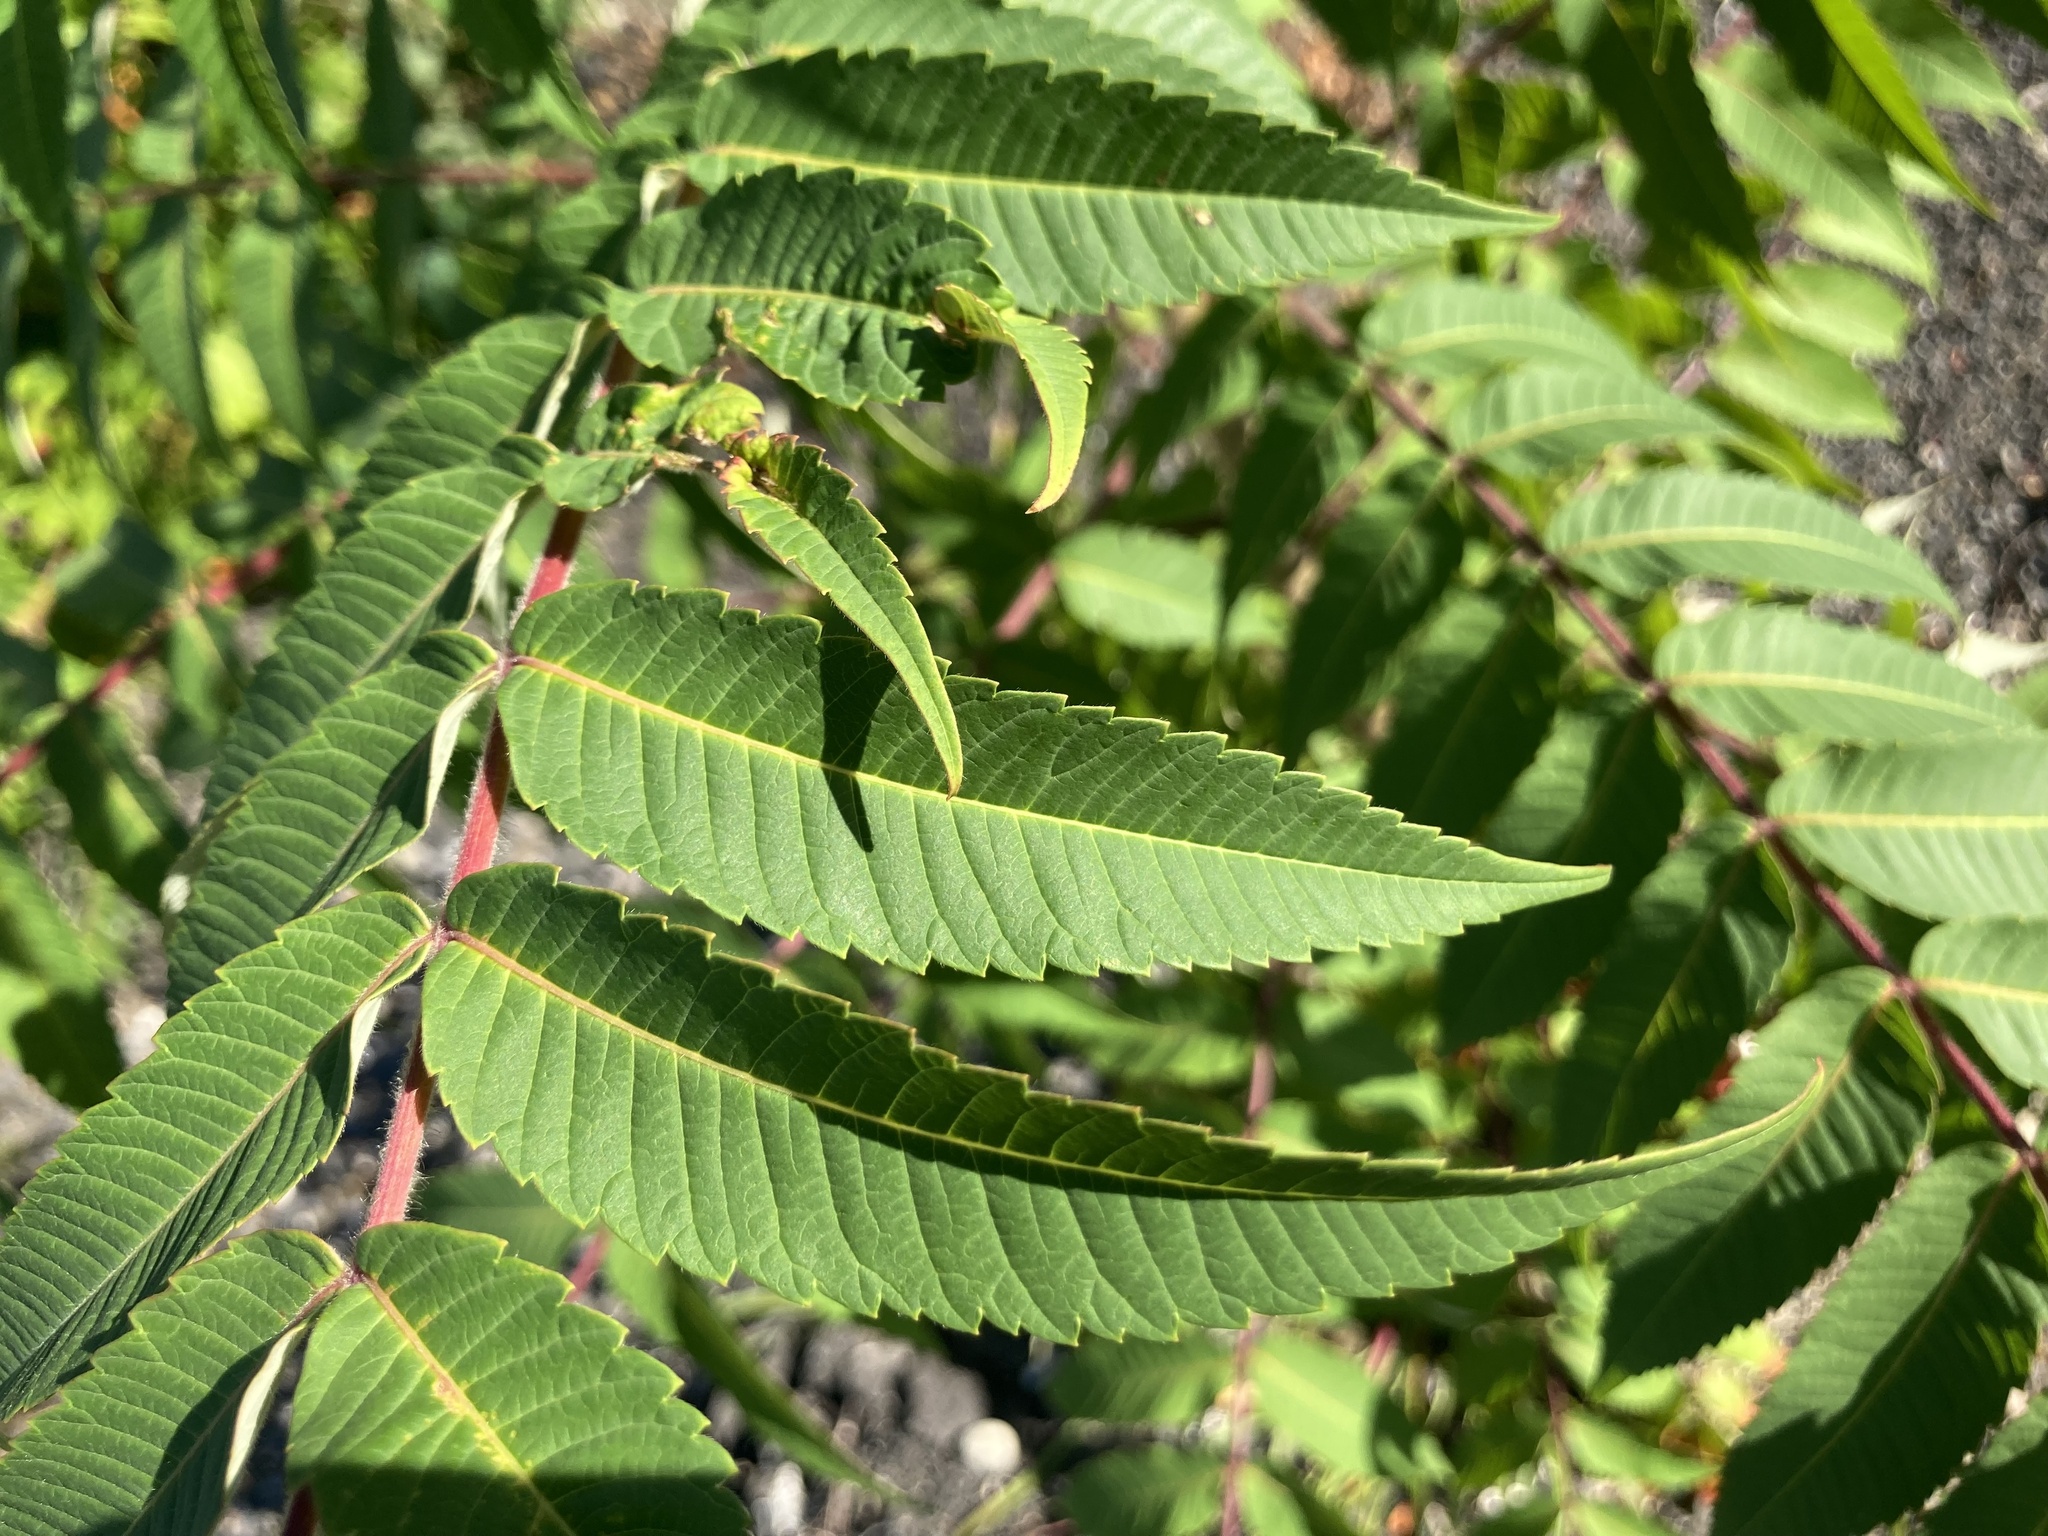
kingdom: Plantae
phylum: Tracheophyta
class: Magnoliopsida
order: Sapindales
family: Anacardiaceae
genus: Rhus
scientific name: Rhus typhina
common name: Staghorn sumac
